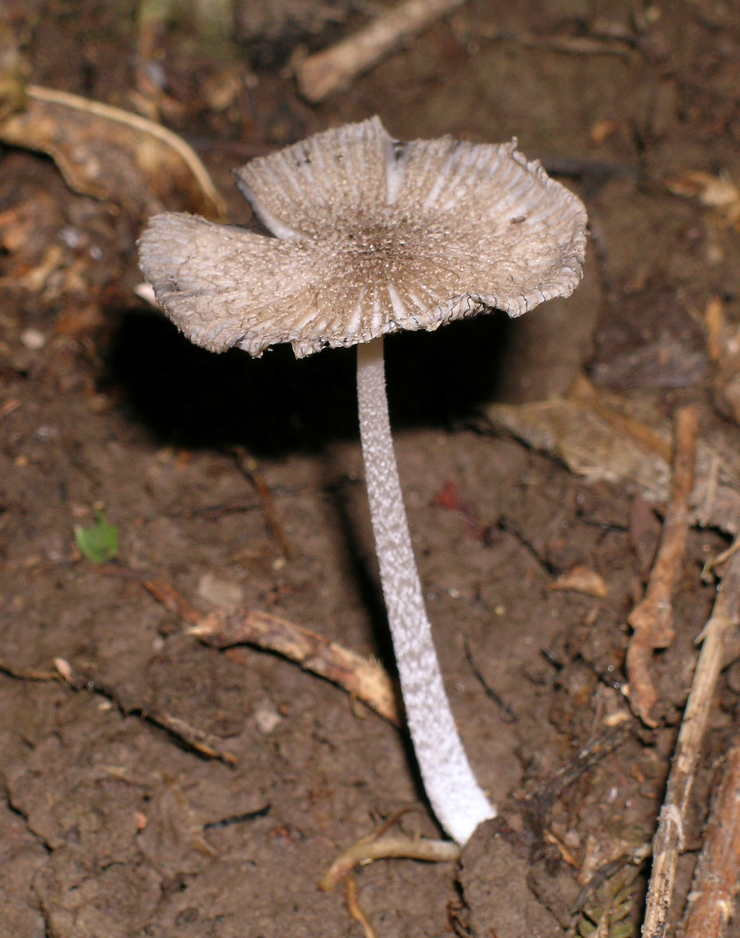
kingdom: Fungi
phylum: Basidiomycota
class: Agaricomycetes
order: Agaricales
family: Psathyrellaceae
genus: Coprinopsis
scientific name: Coprinopsis
